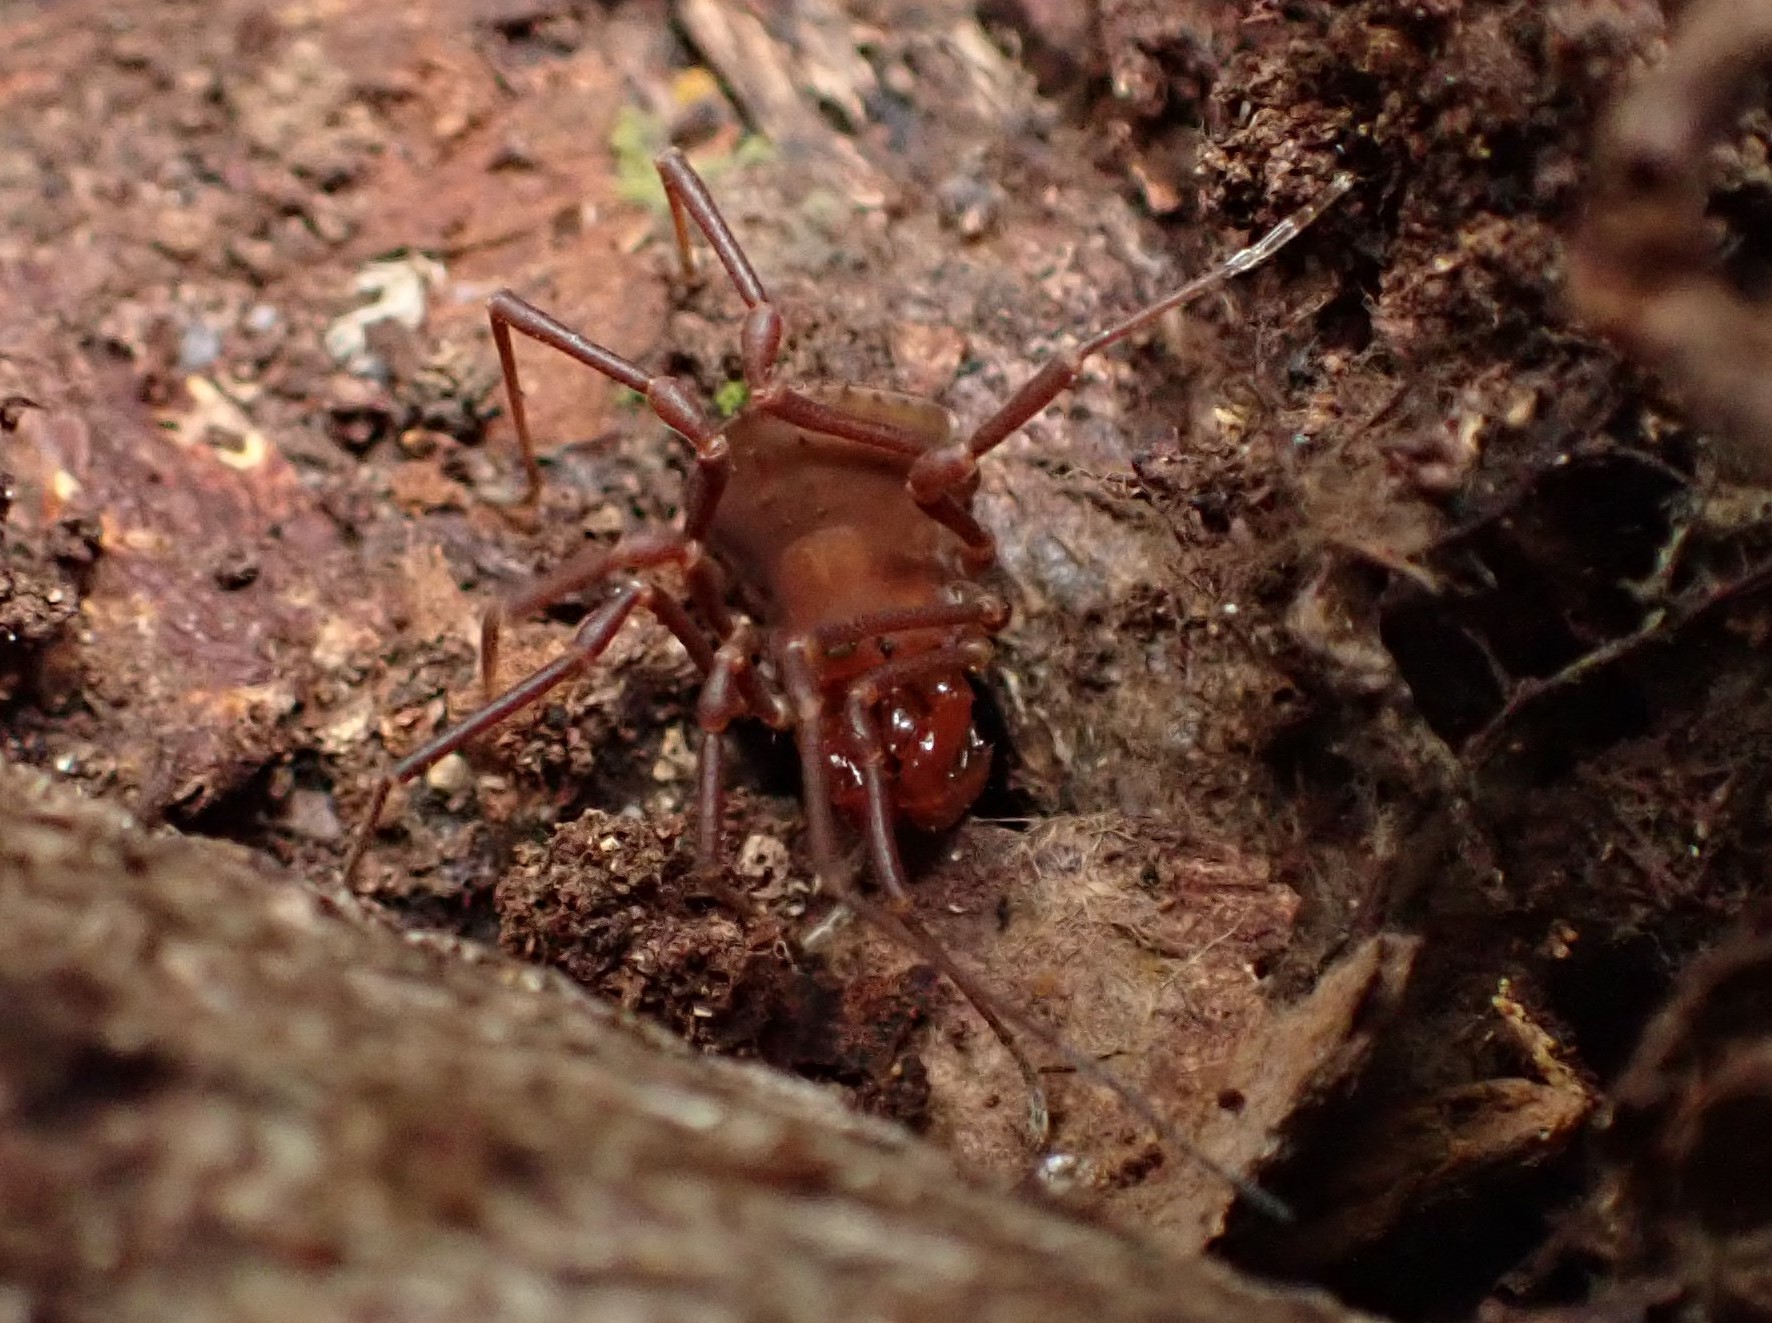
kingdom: Animalia
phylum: Arthropoda
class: Arachnida
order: Opiliones
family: Triaenonychidae
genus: Paranuncia
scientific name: Paranuncia gigantea
